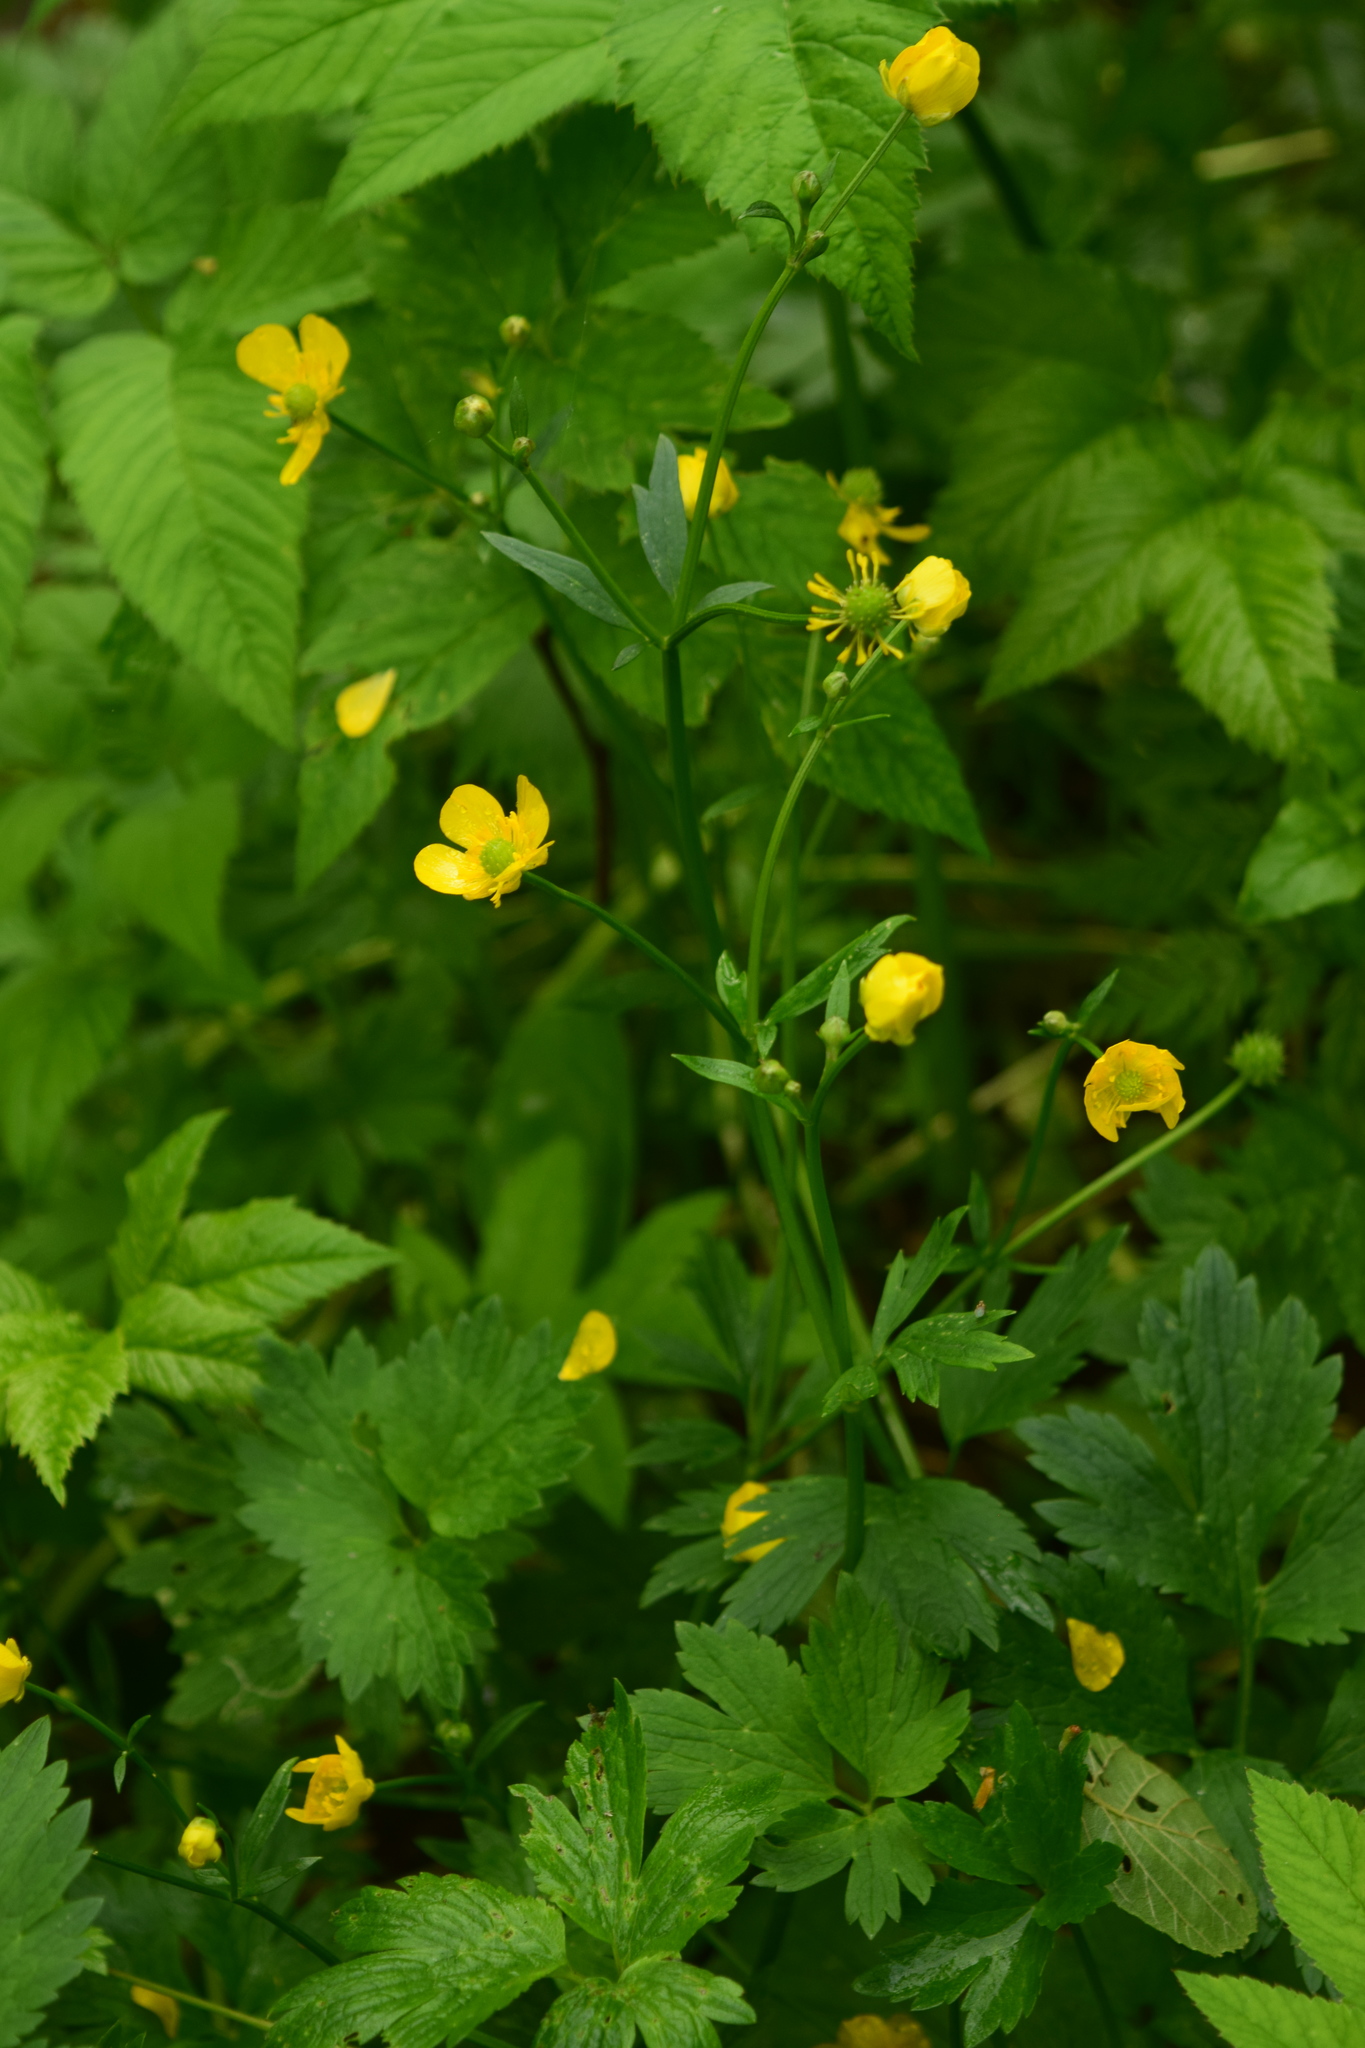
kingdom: Plantae
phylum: Tracheophyta
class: Magnoliopsida
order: Ranunculales
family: Ranunculaceae
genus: Ranunculus
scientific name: Ranunculus repens
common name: Creeping buttercup
